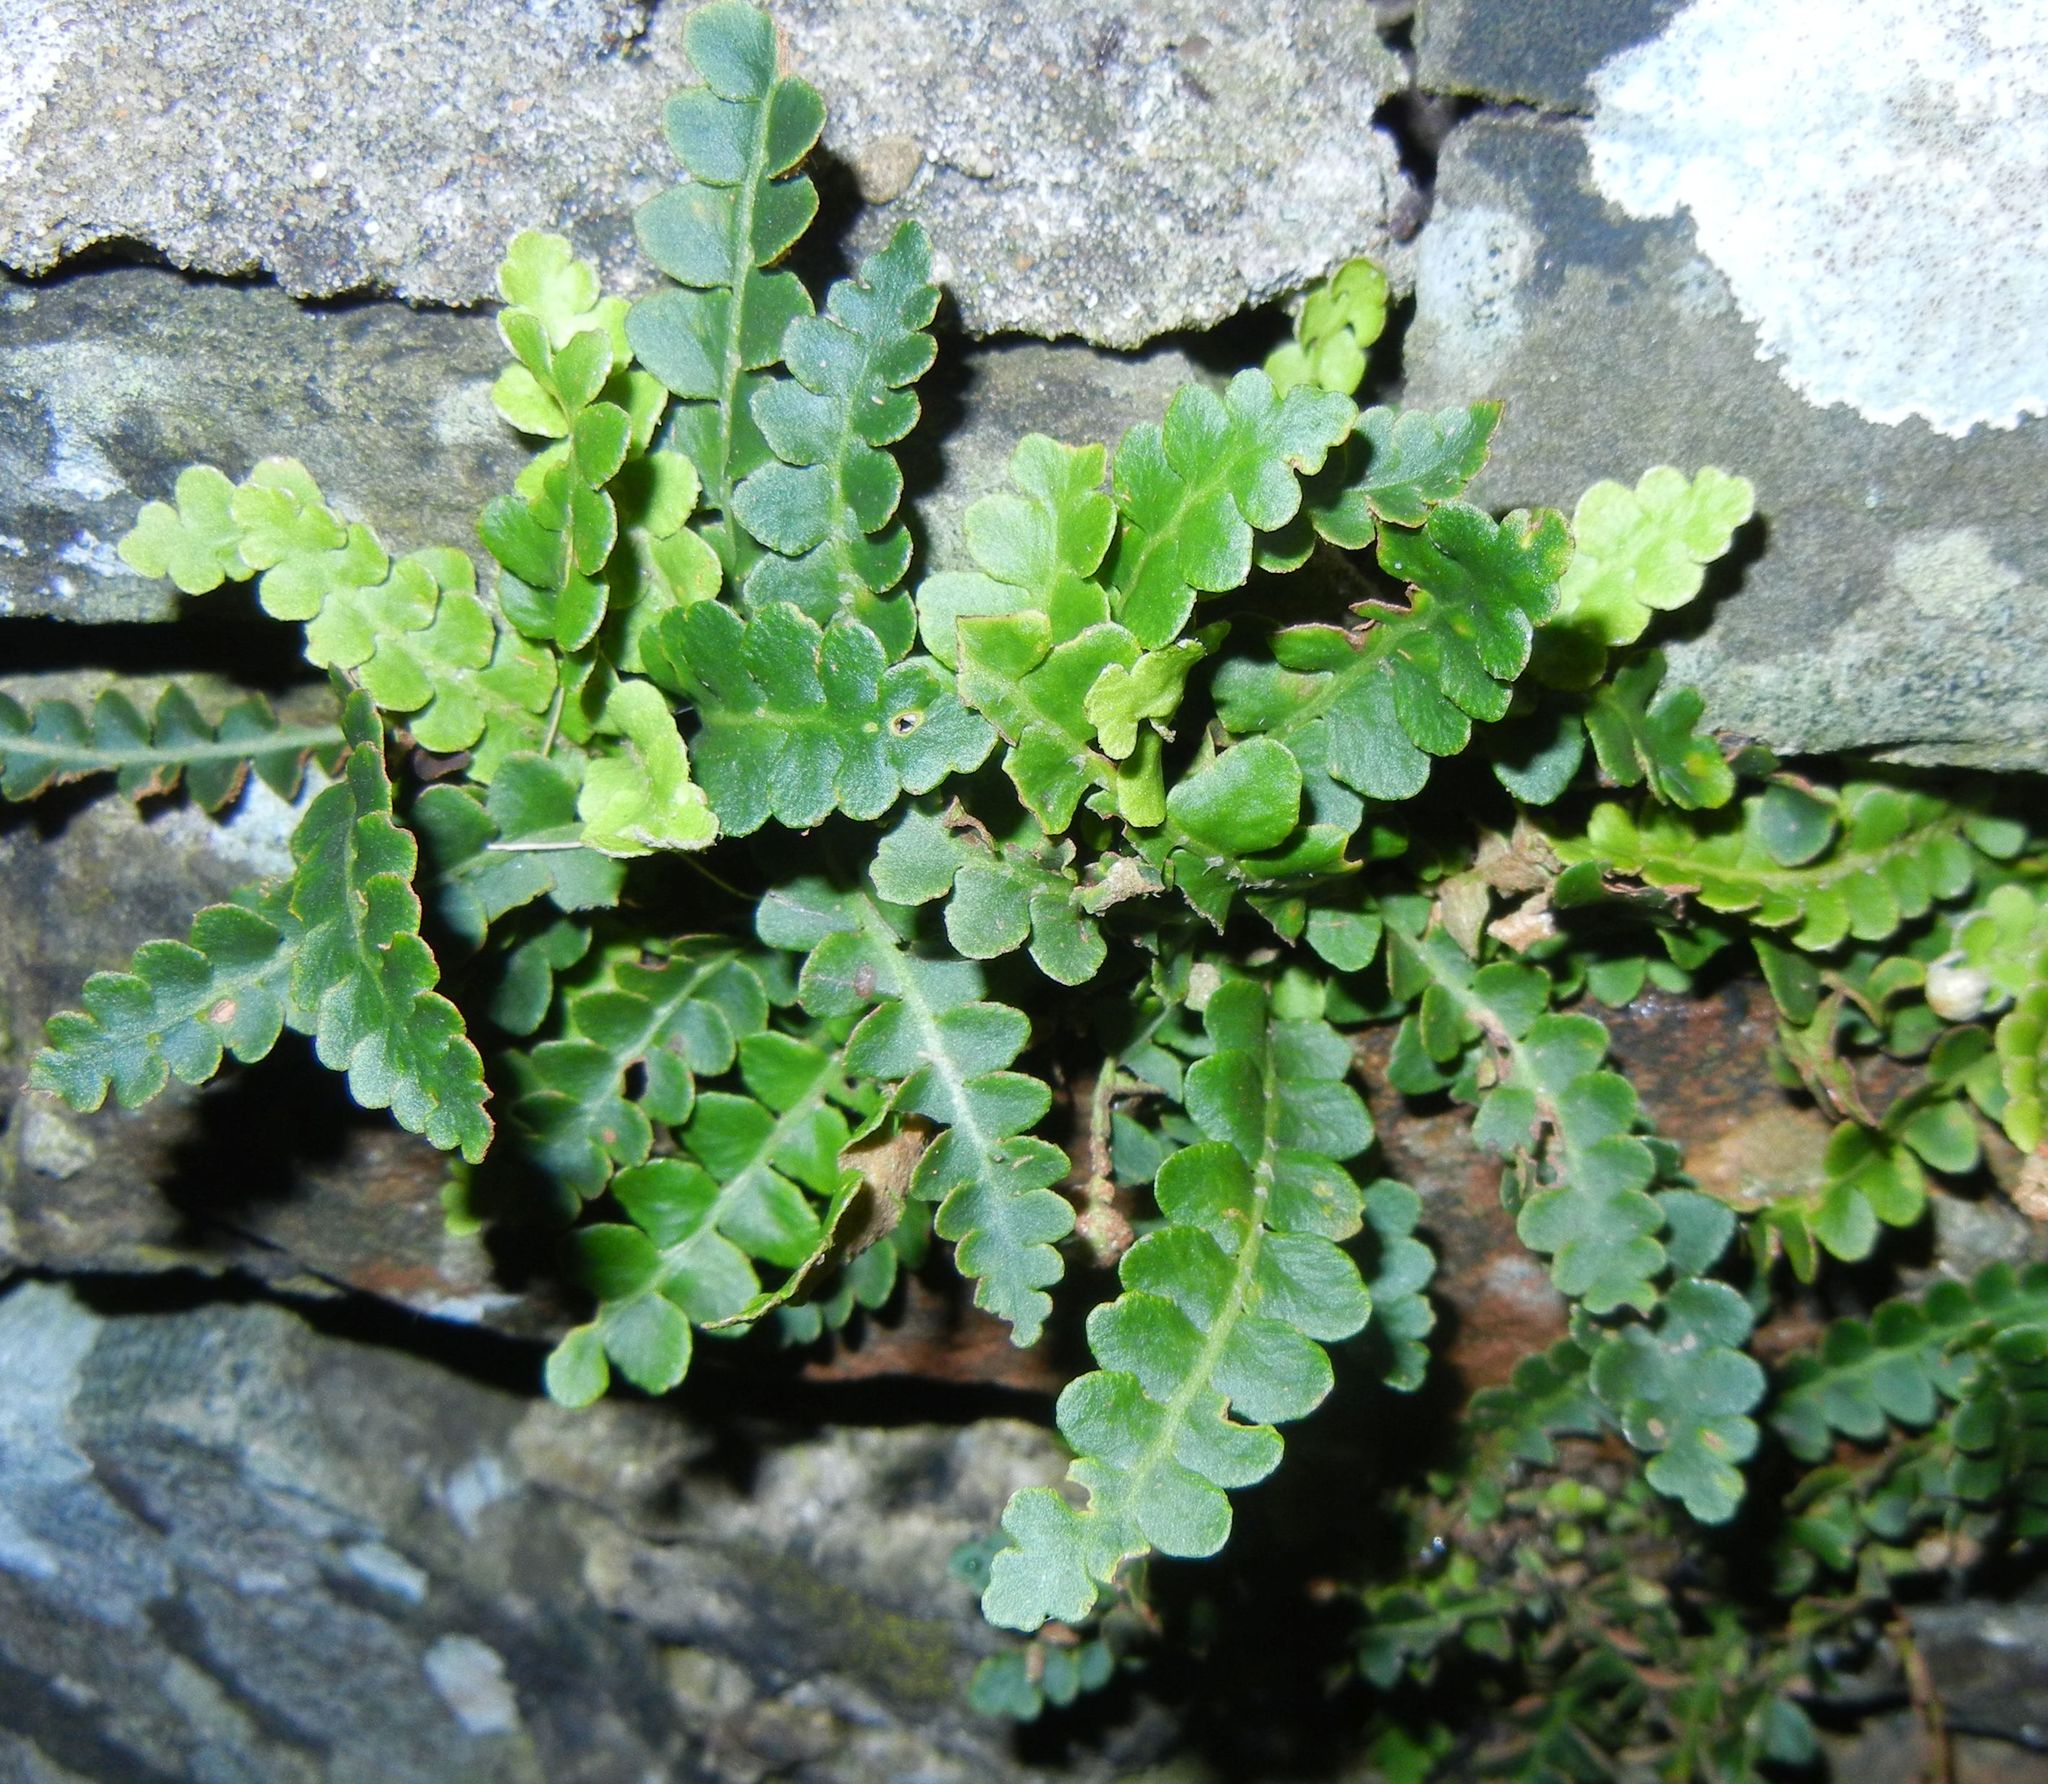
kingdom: Plantae
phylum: Tracheophyta
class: Polypodiopsida
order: Polypodiales
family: Aspleniaceae
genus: Asplenium
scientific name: Asplenium ceterach
